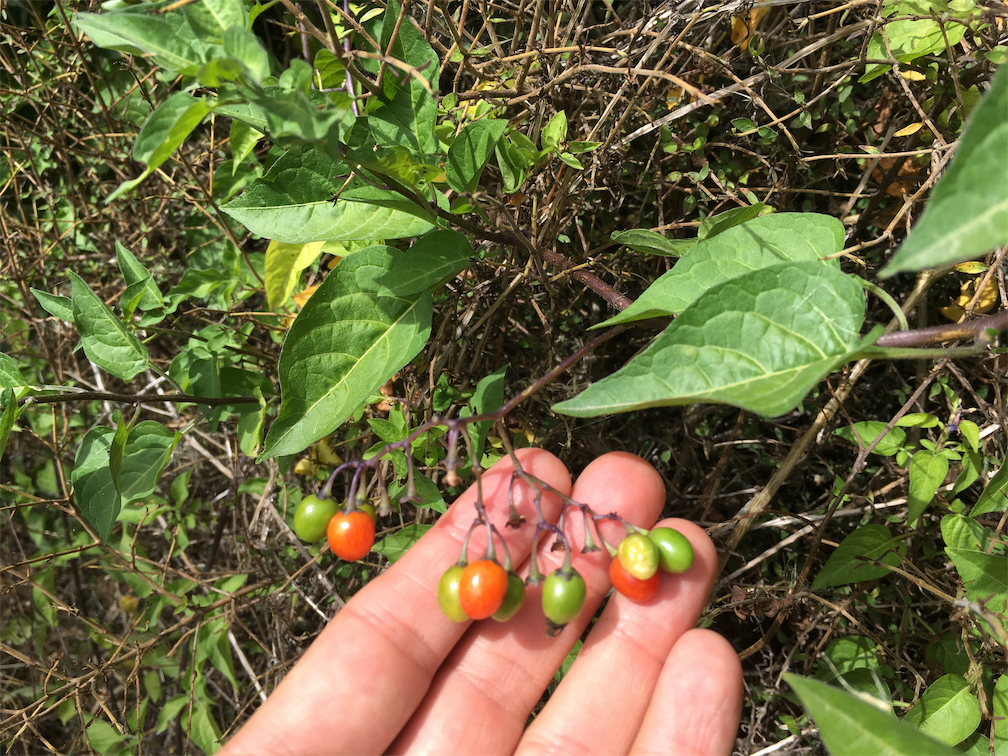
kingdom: Plantae
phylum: Tracheophyta
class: Magnoliopsida
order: Solanales
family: Solanaceae
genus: Solanum
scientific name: Solanum dulcamara
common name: Climbing nightshade
